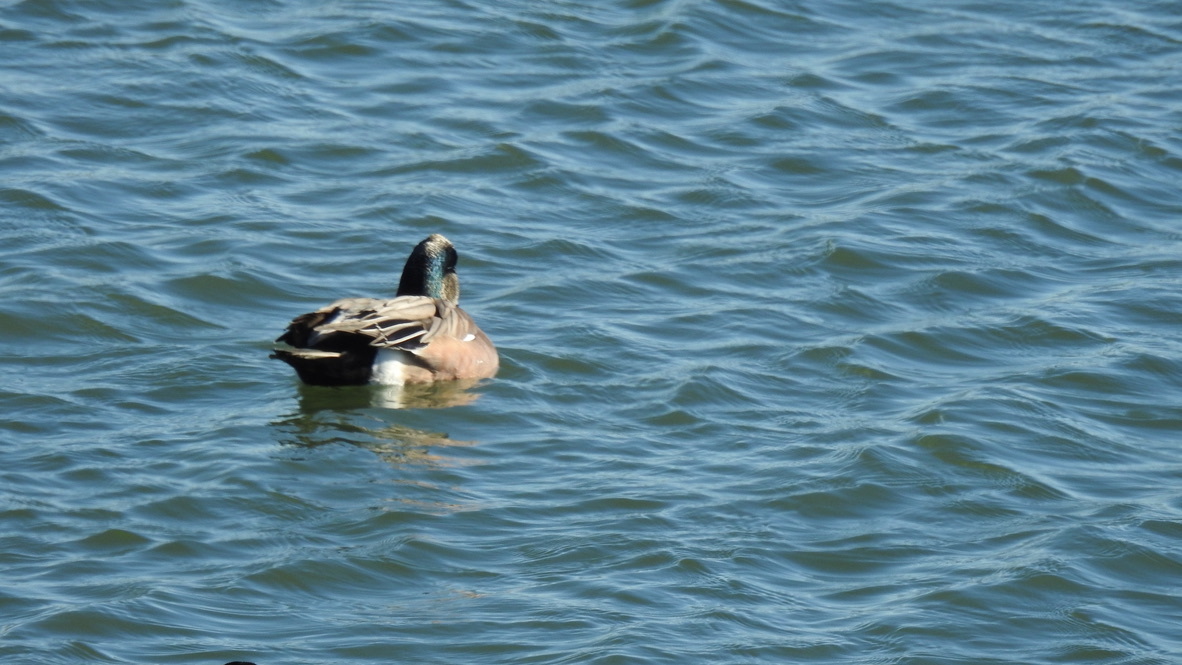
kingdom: Animalia
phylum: Chordata
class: Aves
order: Anseriformes
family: Anatidae
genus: Mareca
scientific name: Mareca americana
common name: American wigeon
